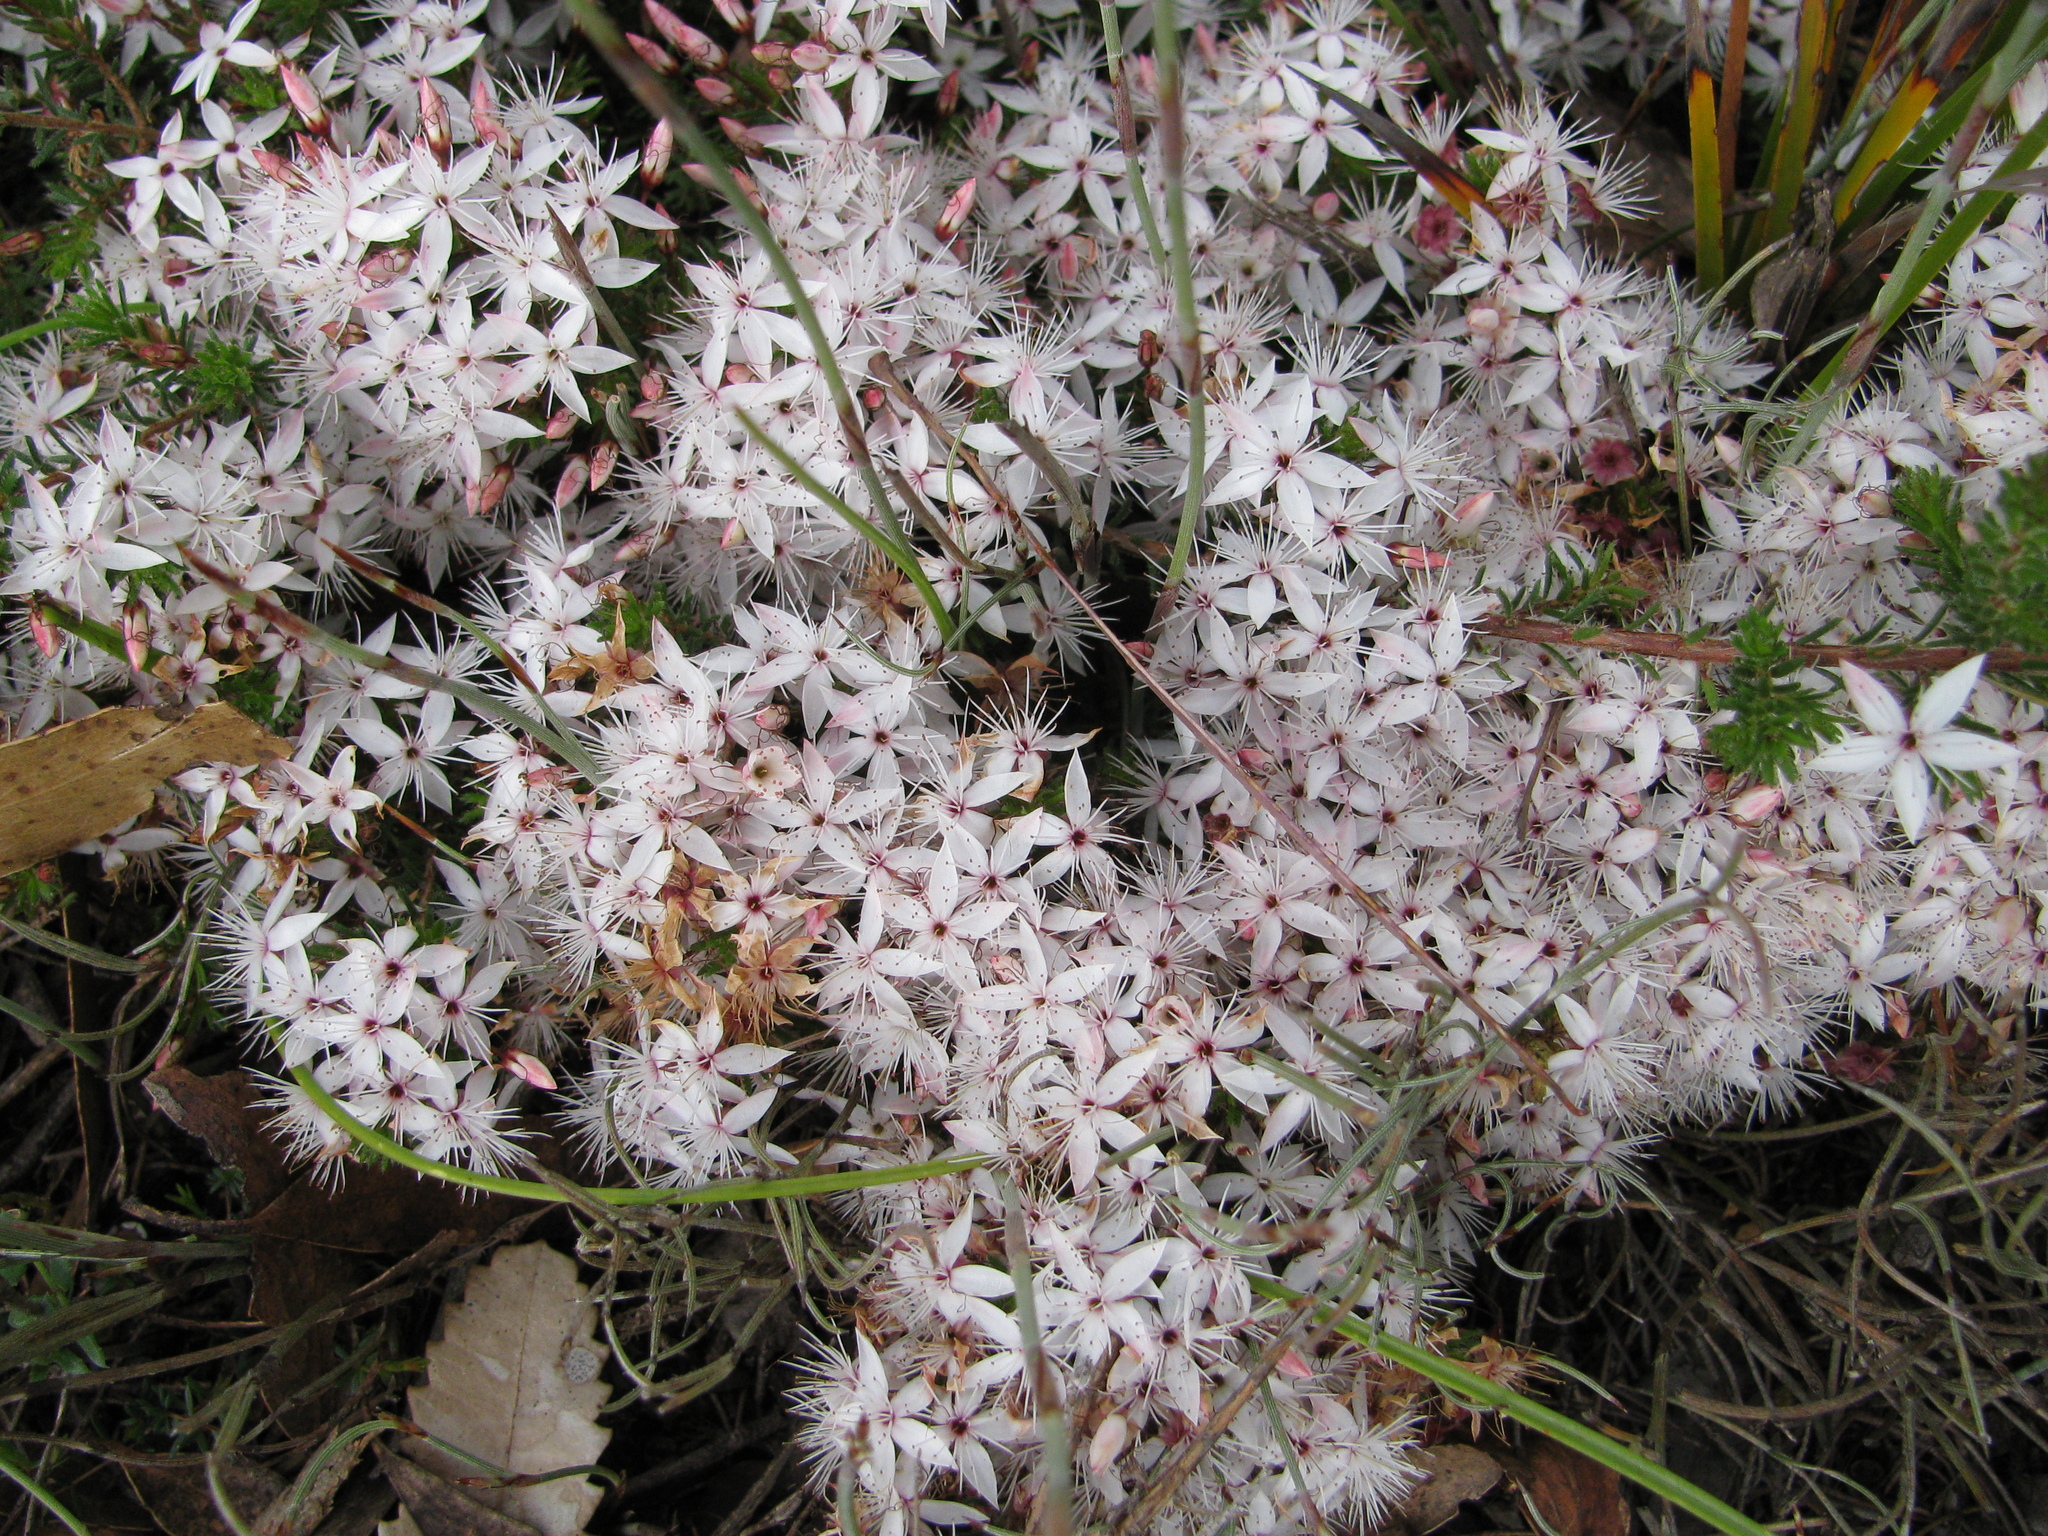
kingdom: Plantae
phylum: Tracheophyta
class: Magnoliopsida
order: Myrtales
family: Myrtaceae
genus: Calytrix
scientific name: Calytrix tetragona
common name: Common fringe myrtle
